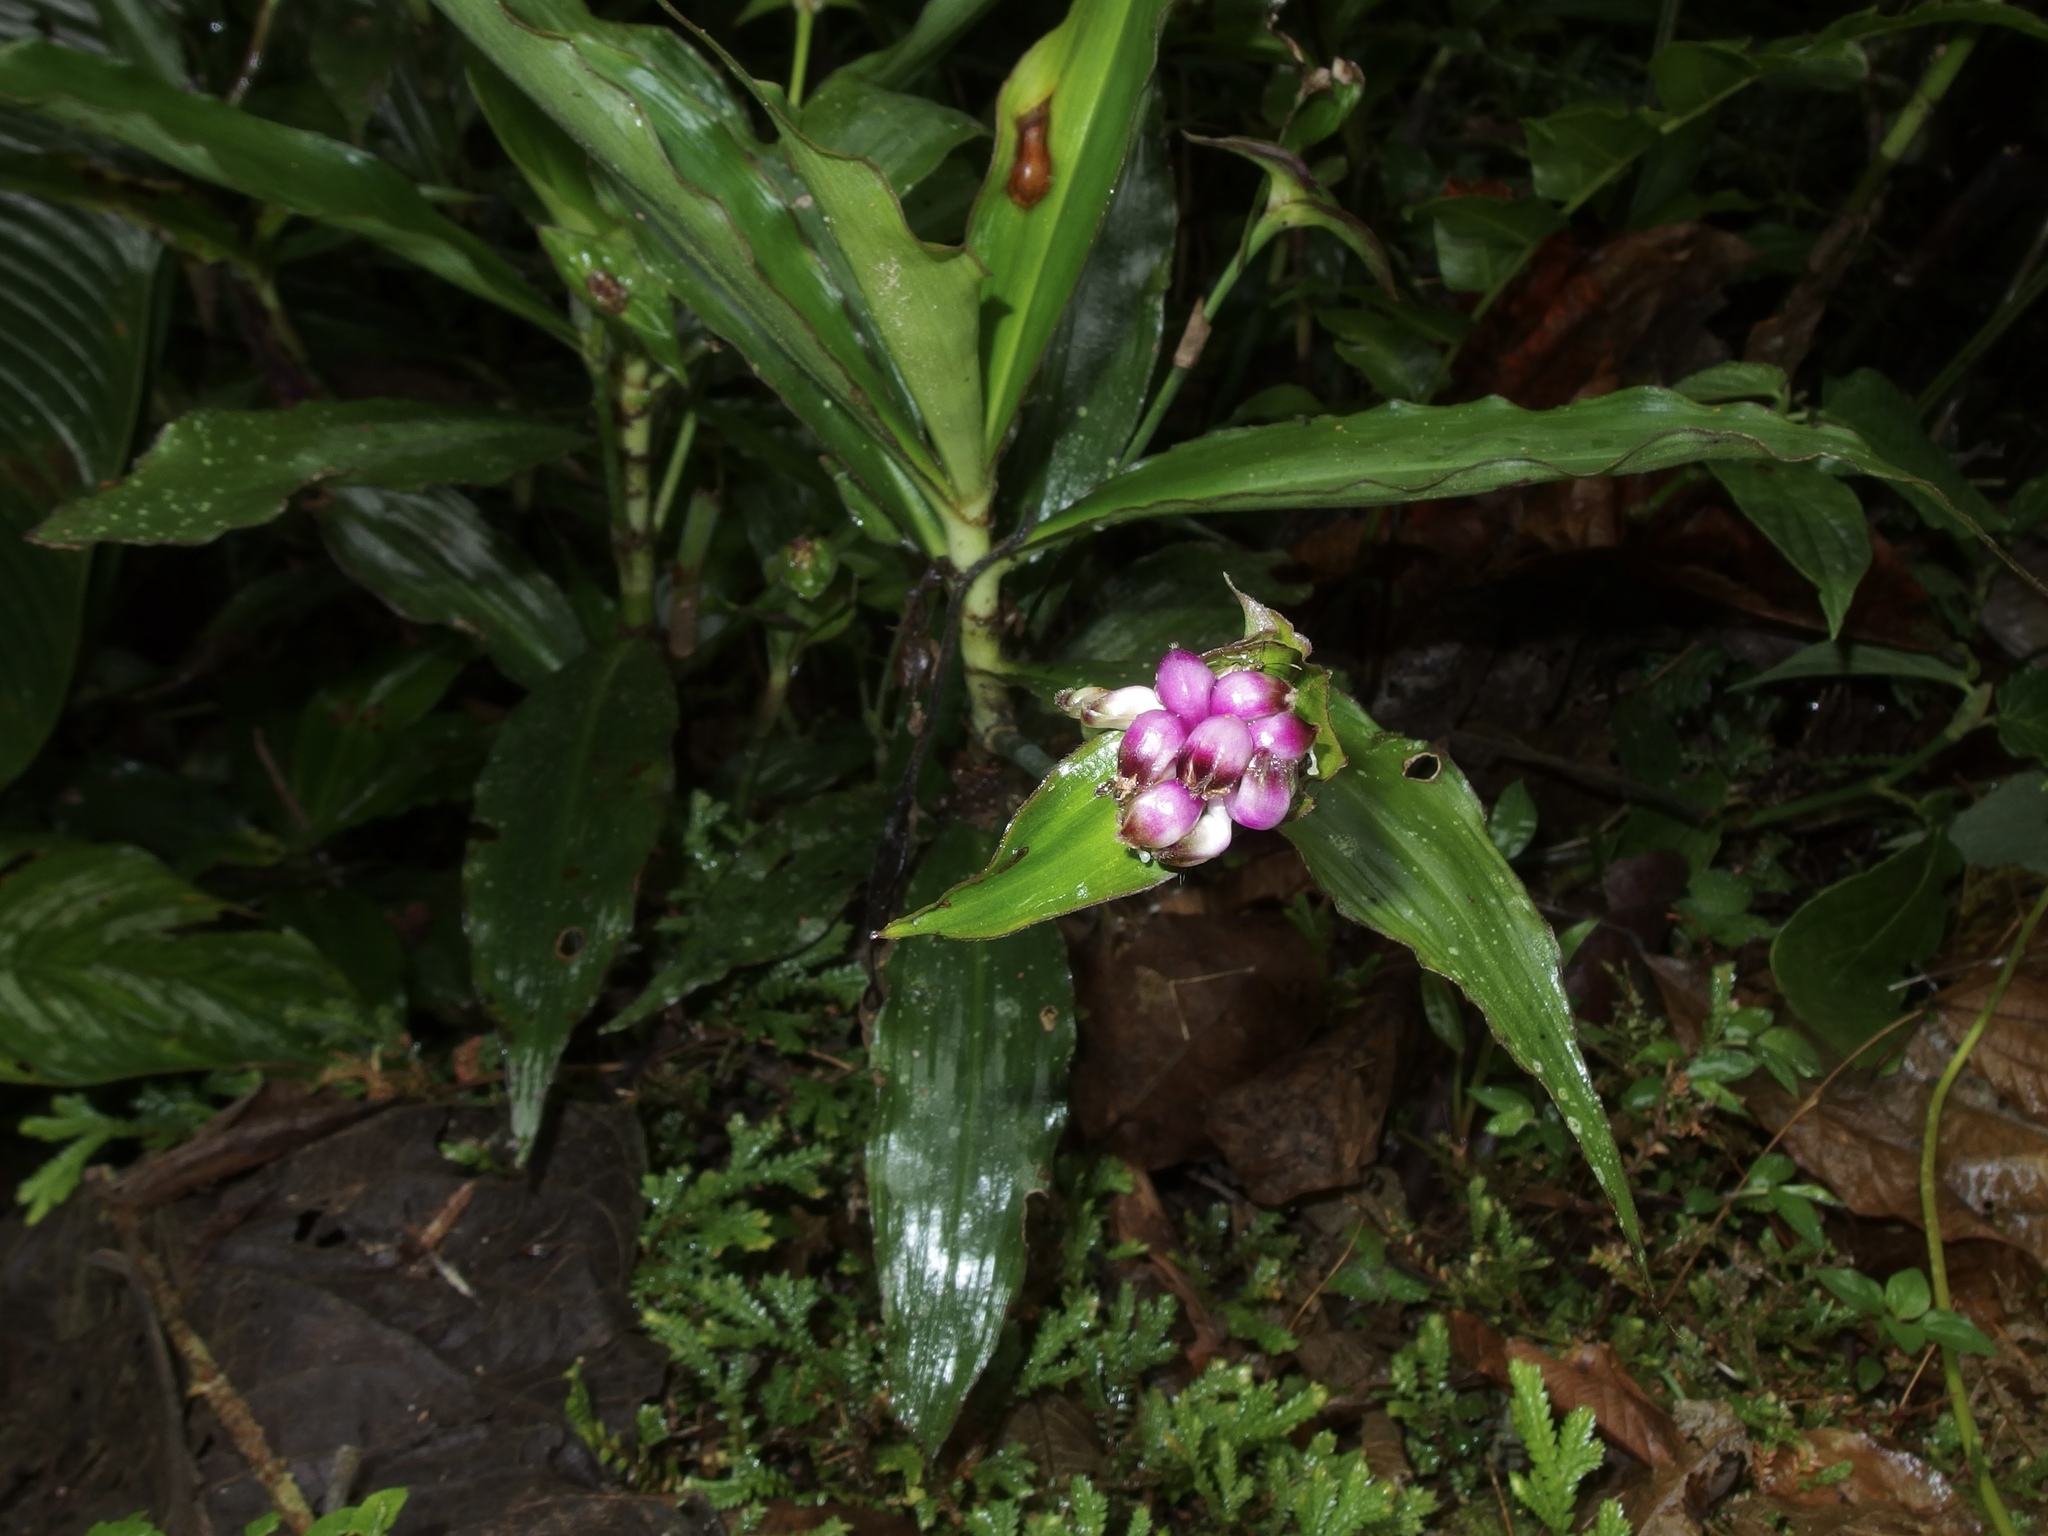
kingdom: Plantae
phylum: Tracheophyta
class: Liliopsida
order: Commelinales
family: Commelinaceae
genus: Tradescantia
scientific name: Tradescantia zanonia
